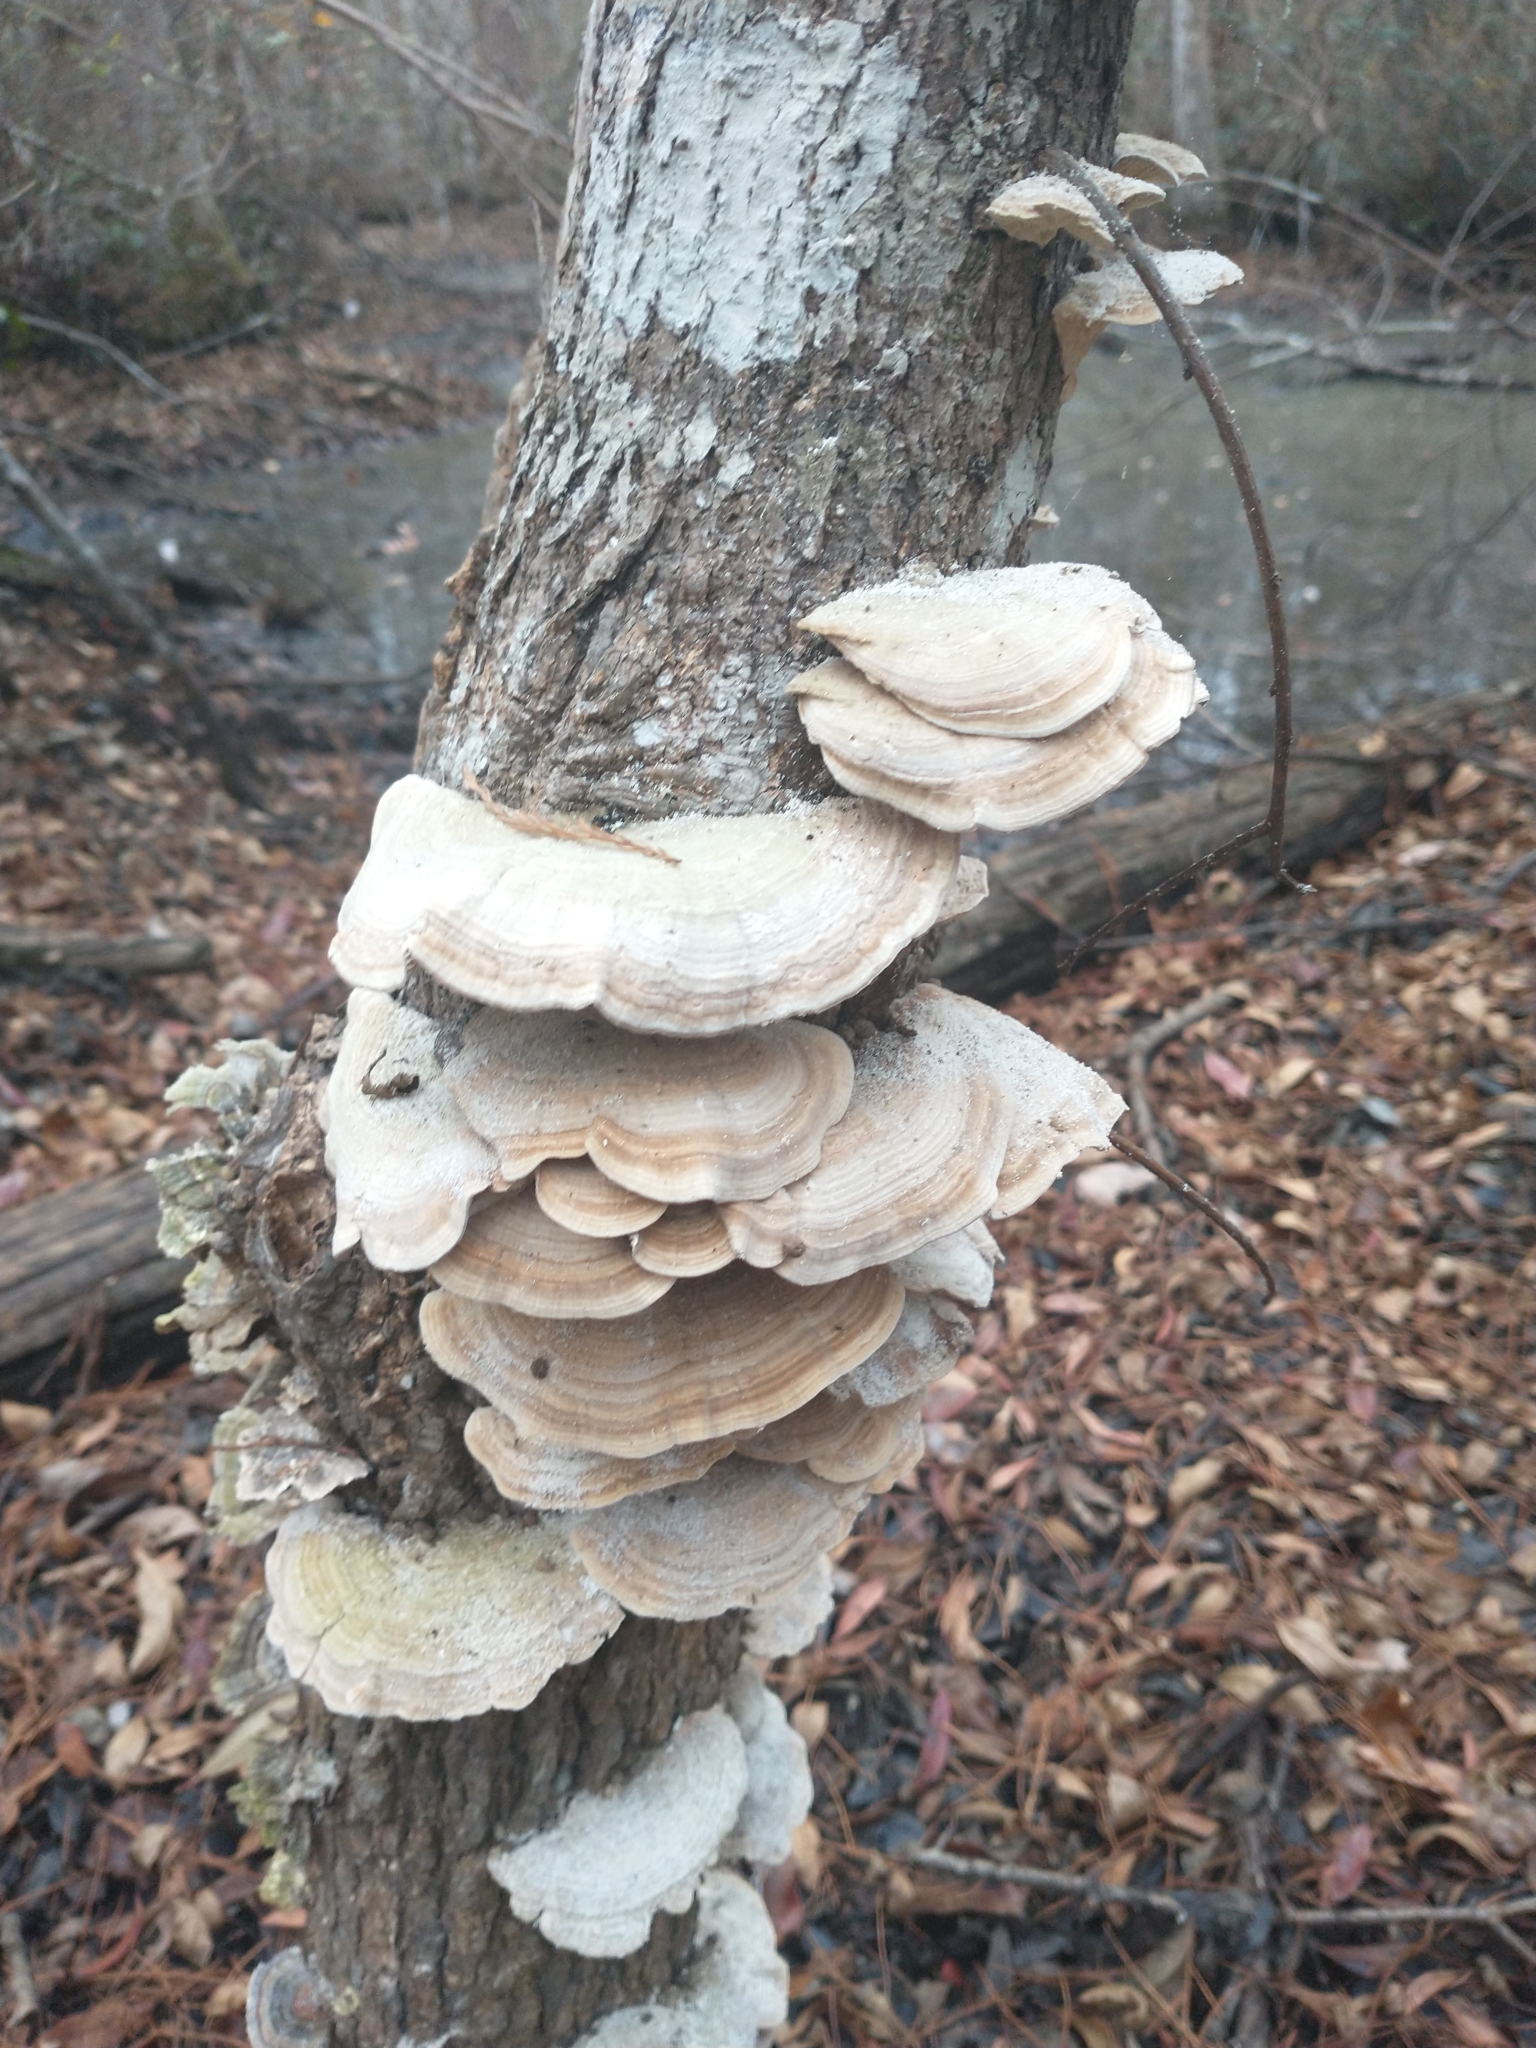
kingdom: Fungi
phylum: Basidiomycota
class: Agaricomycetes
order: Polyporales
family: Polyporaceae
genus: Lenzites
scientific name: Lenzites betulinus
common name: Birch mazegill
